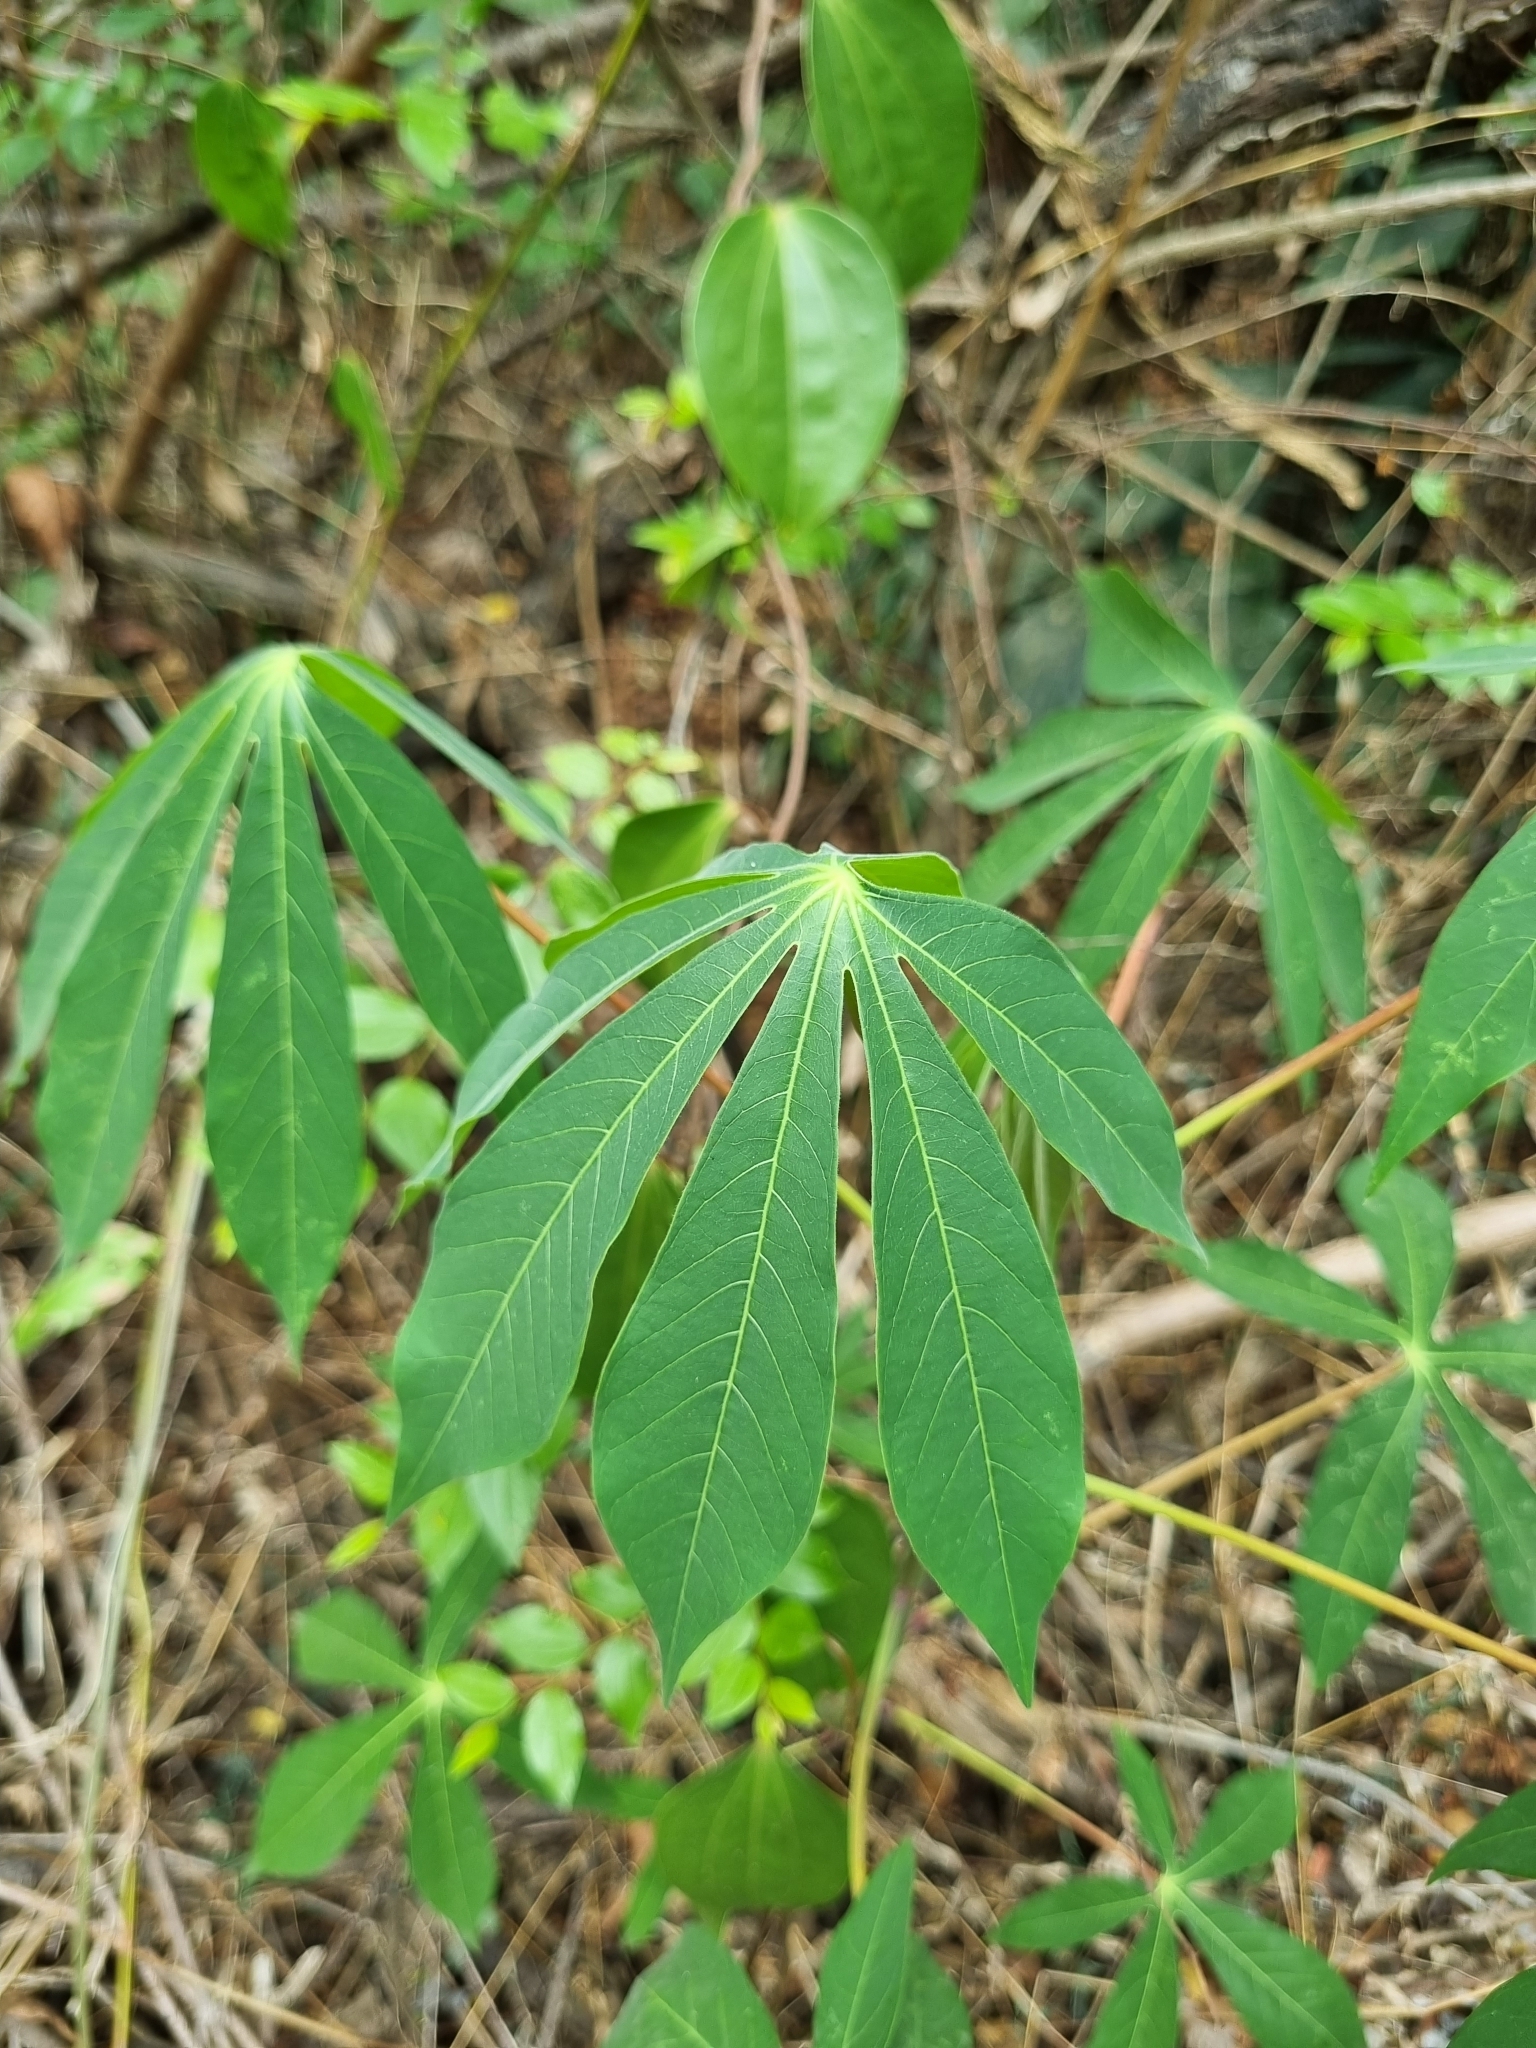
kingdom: Plantae
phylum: Tracheophyta
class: Magnoliopsida
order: Malvales
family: Malvaceae
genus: Bombax
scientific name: Bombax ceiba
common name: Northern-cottonwood
